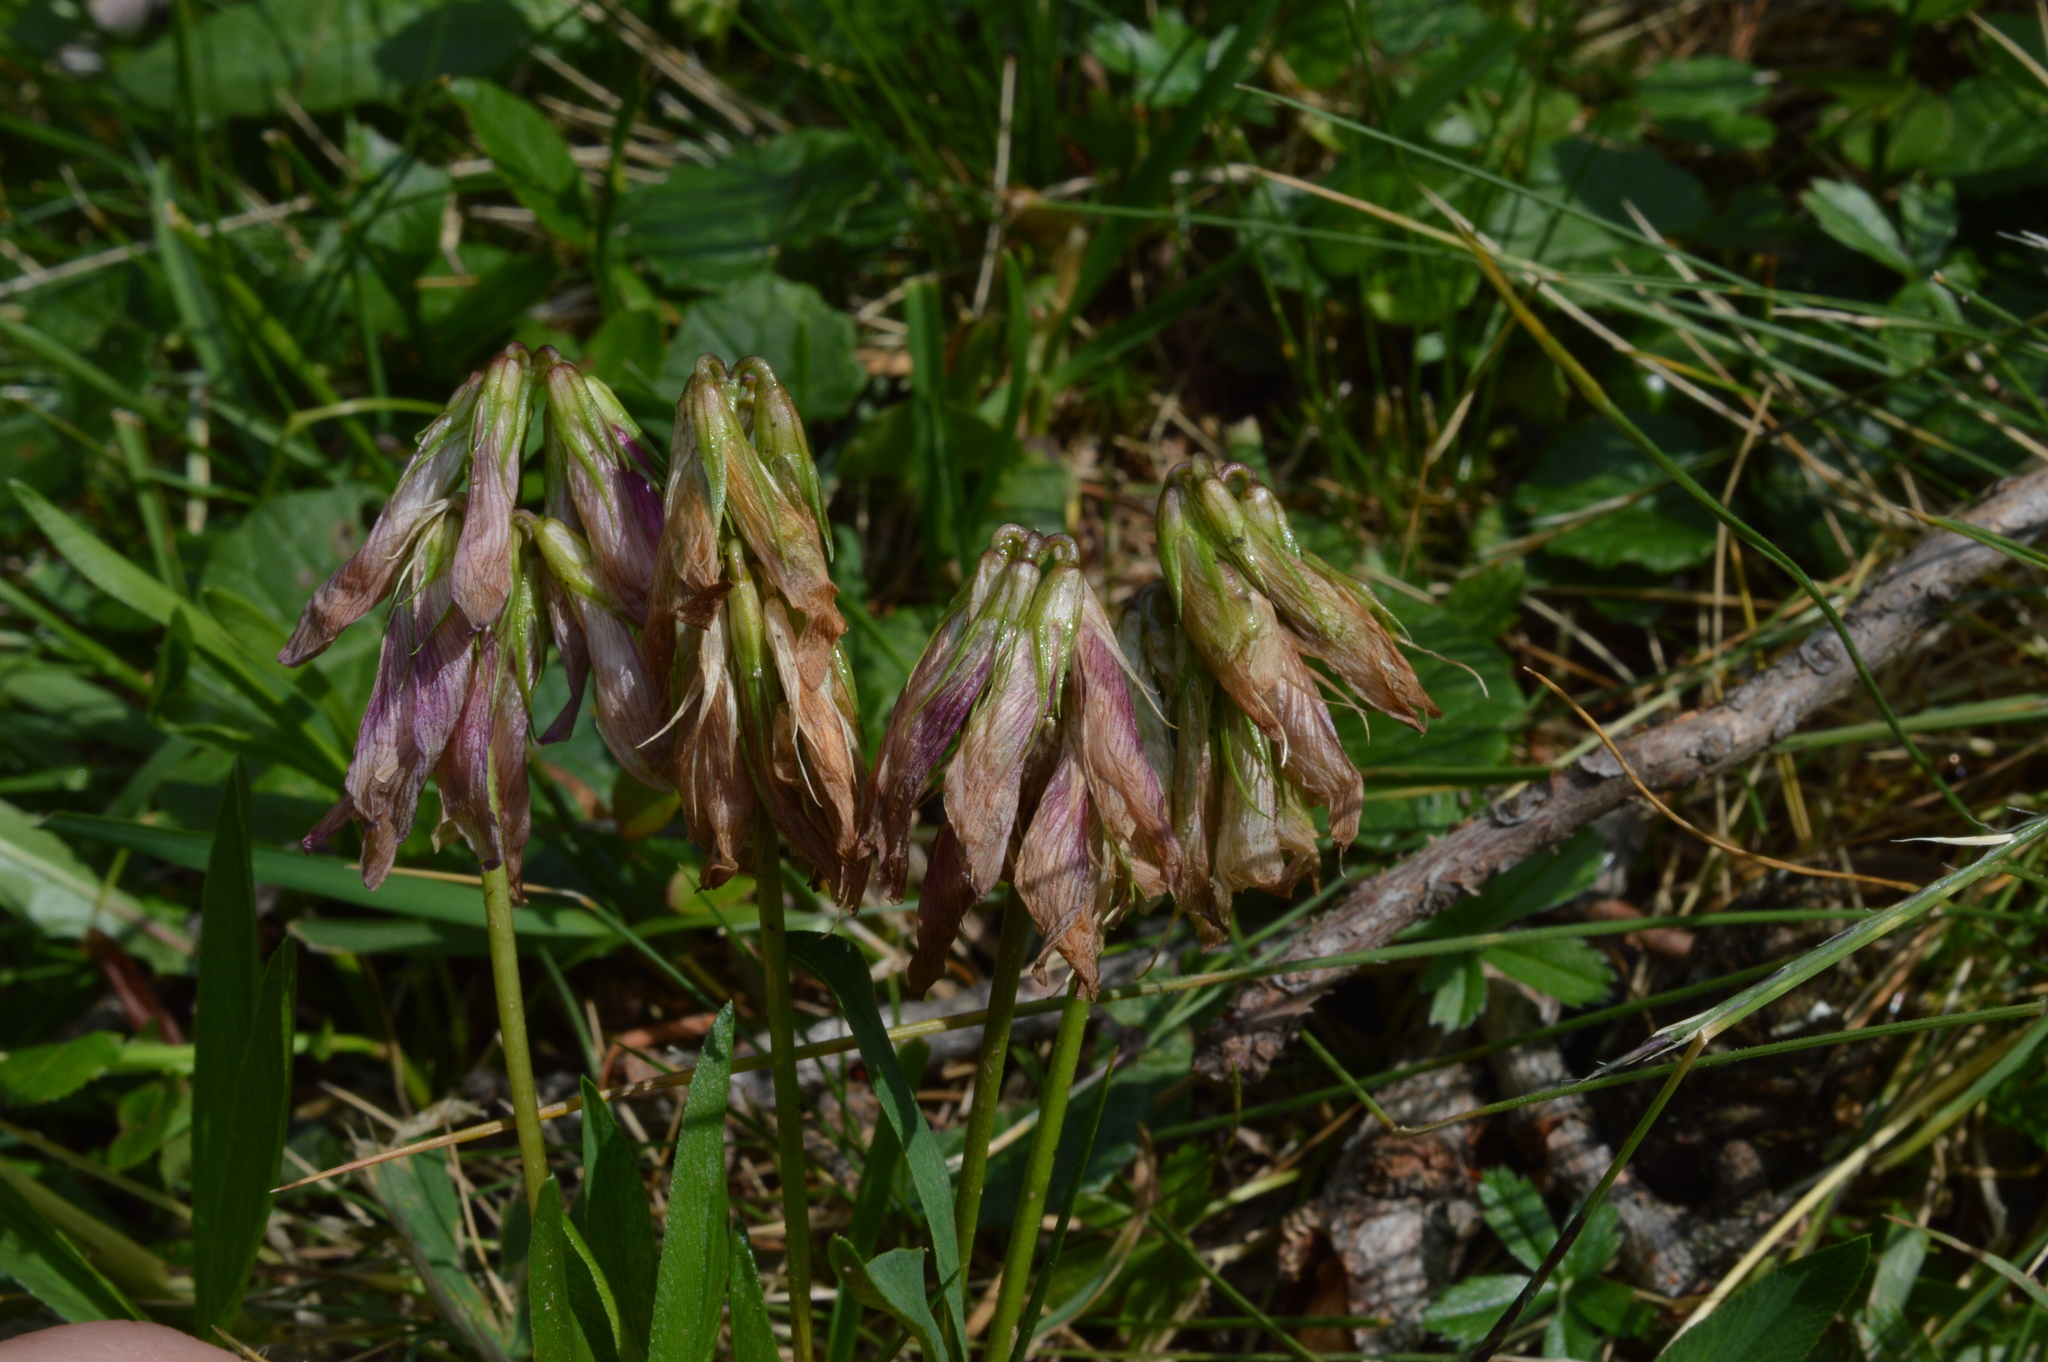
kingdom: Plantae
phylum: Tracheophyta
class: Magnoliopsida
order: Fabales
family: Fabaceae
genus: Trifolium
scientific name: Trifolium alpinum
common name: Alpine clover
